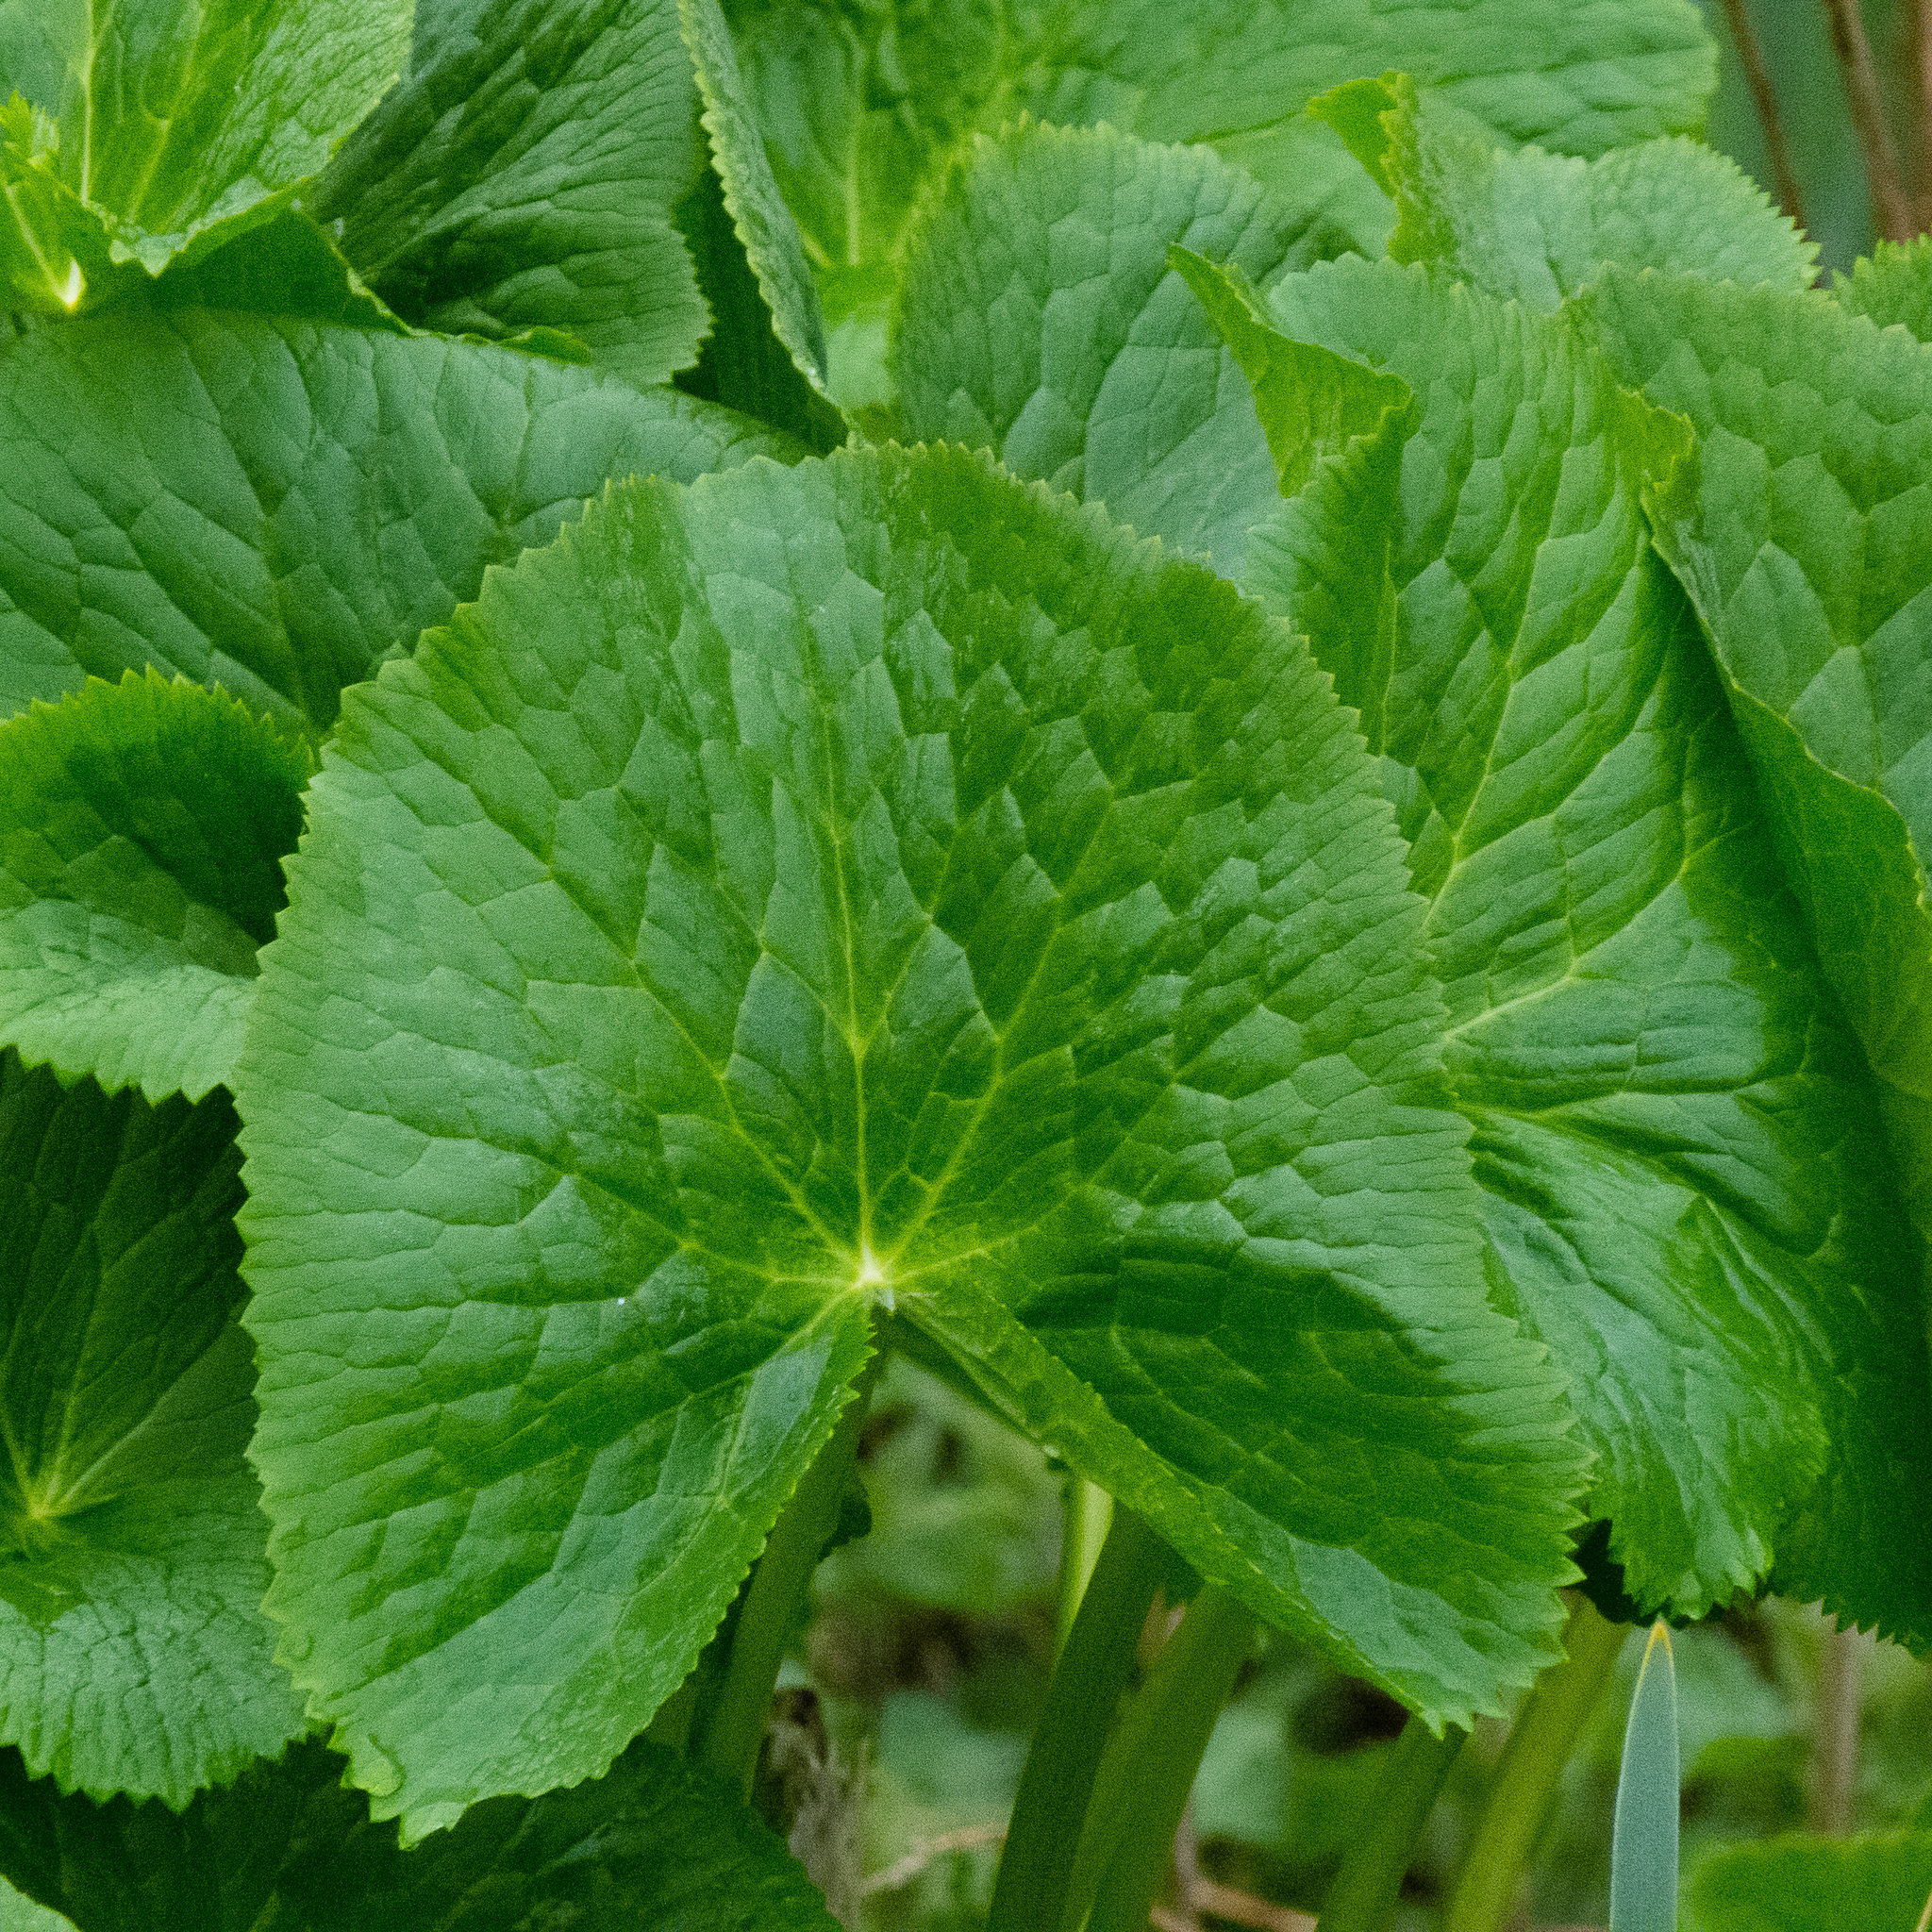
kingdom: Plantae
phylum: Tracheophyta
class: Magnoliopsida
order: Ranunculales
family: Ranunculaceae
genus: Caltha
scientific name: Caltha palustris
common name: Marsh marigold
